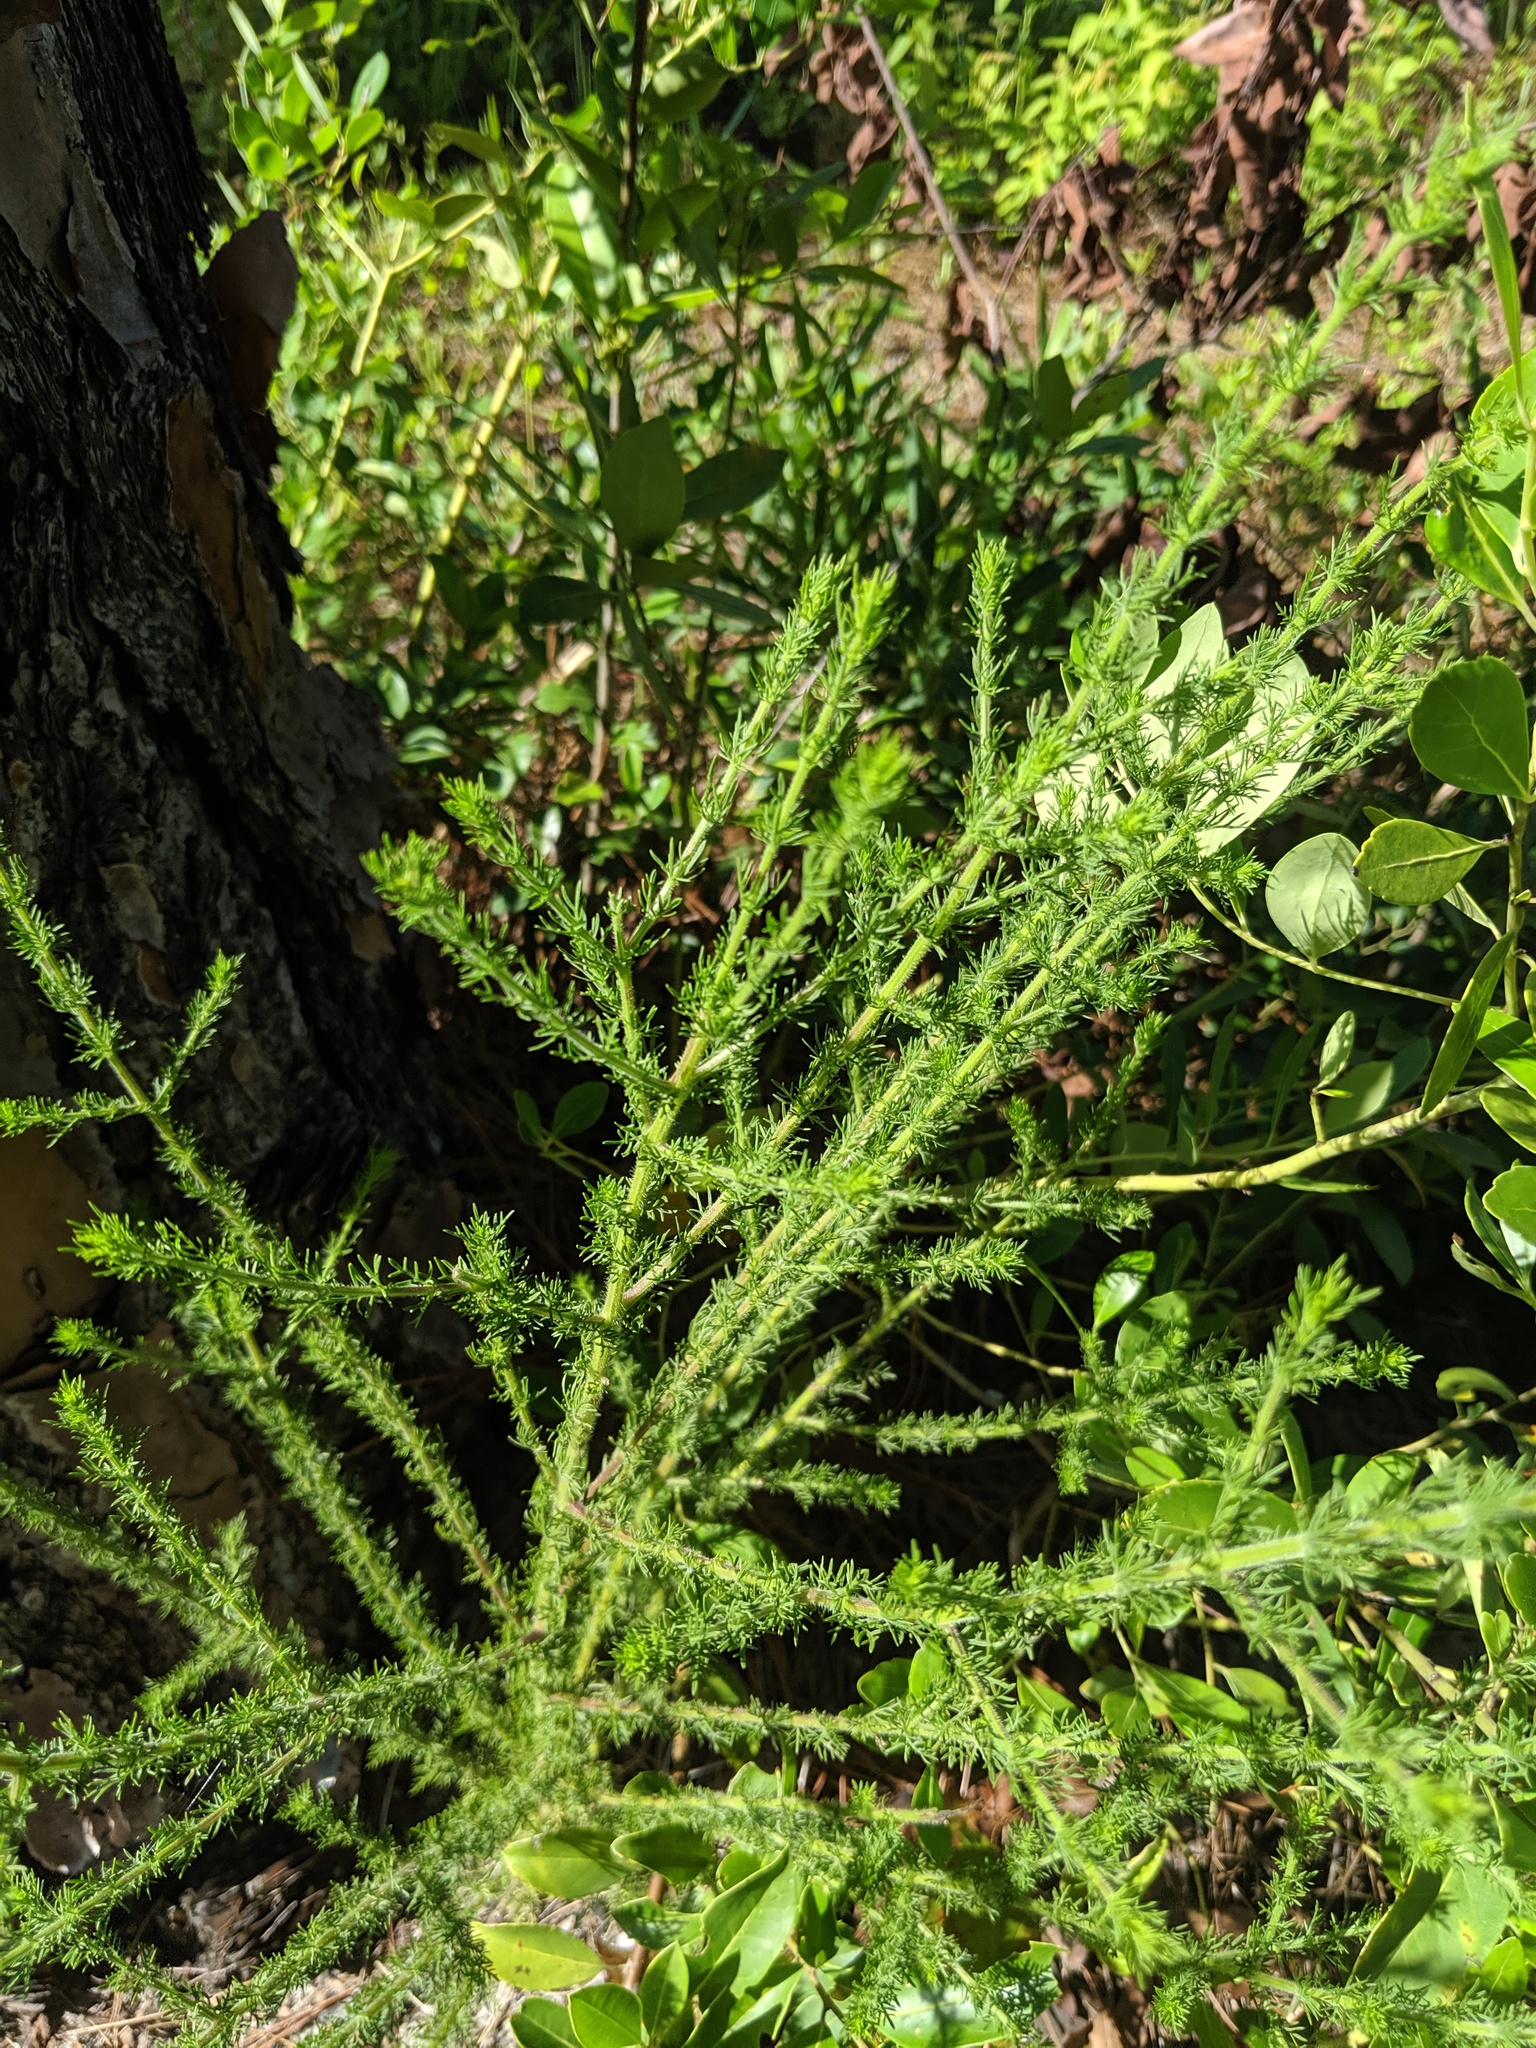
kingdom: Plantae
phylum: Tracheophyta
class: Magnoliopsida
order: Lamiales
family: Orobanchaceae
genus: Seymeria
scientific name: Seymeria cassioides
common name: Yaupon black-senna
